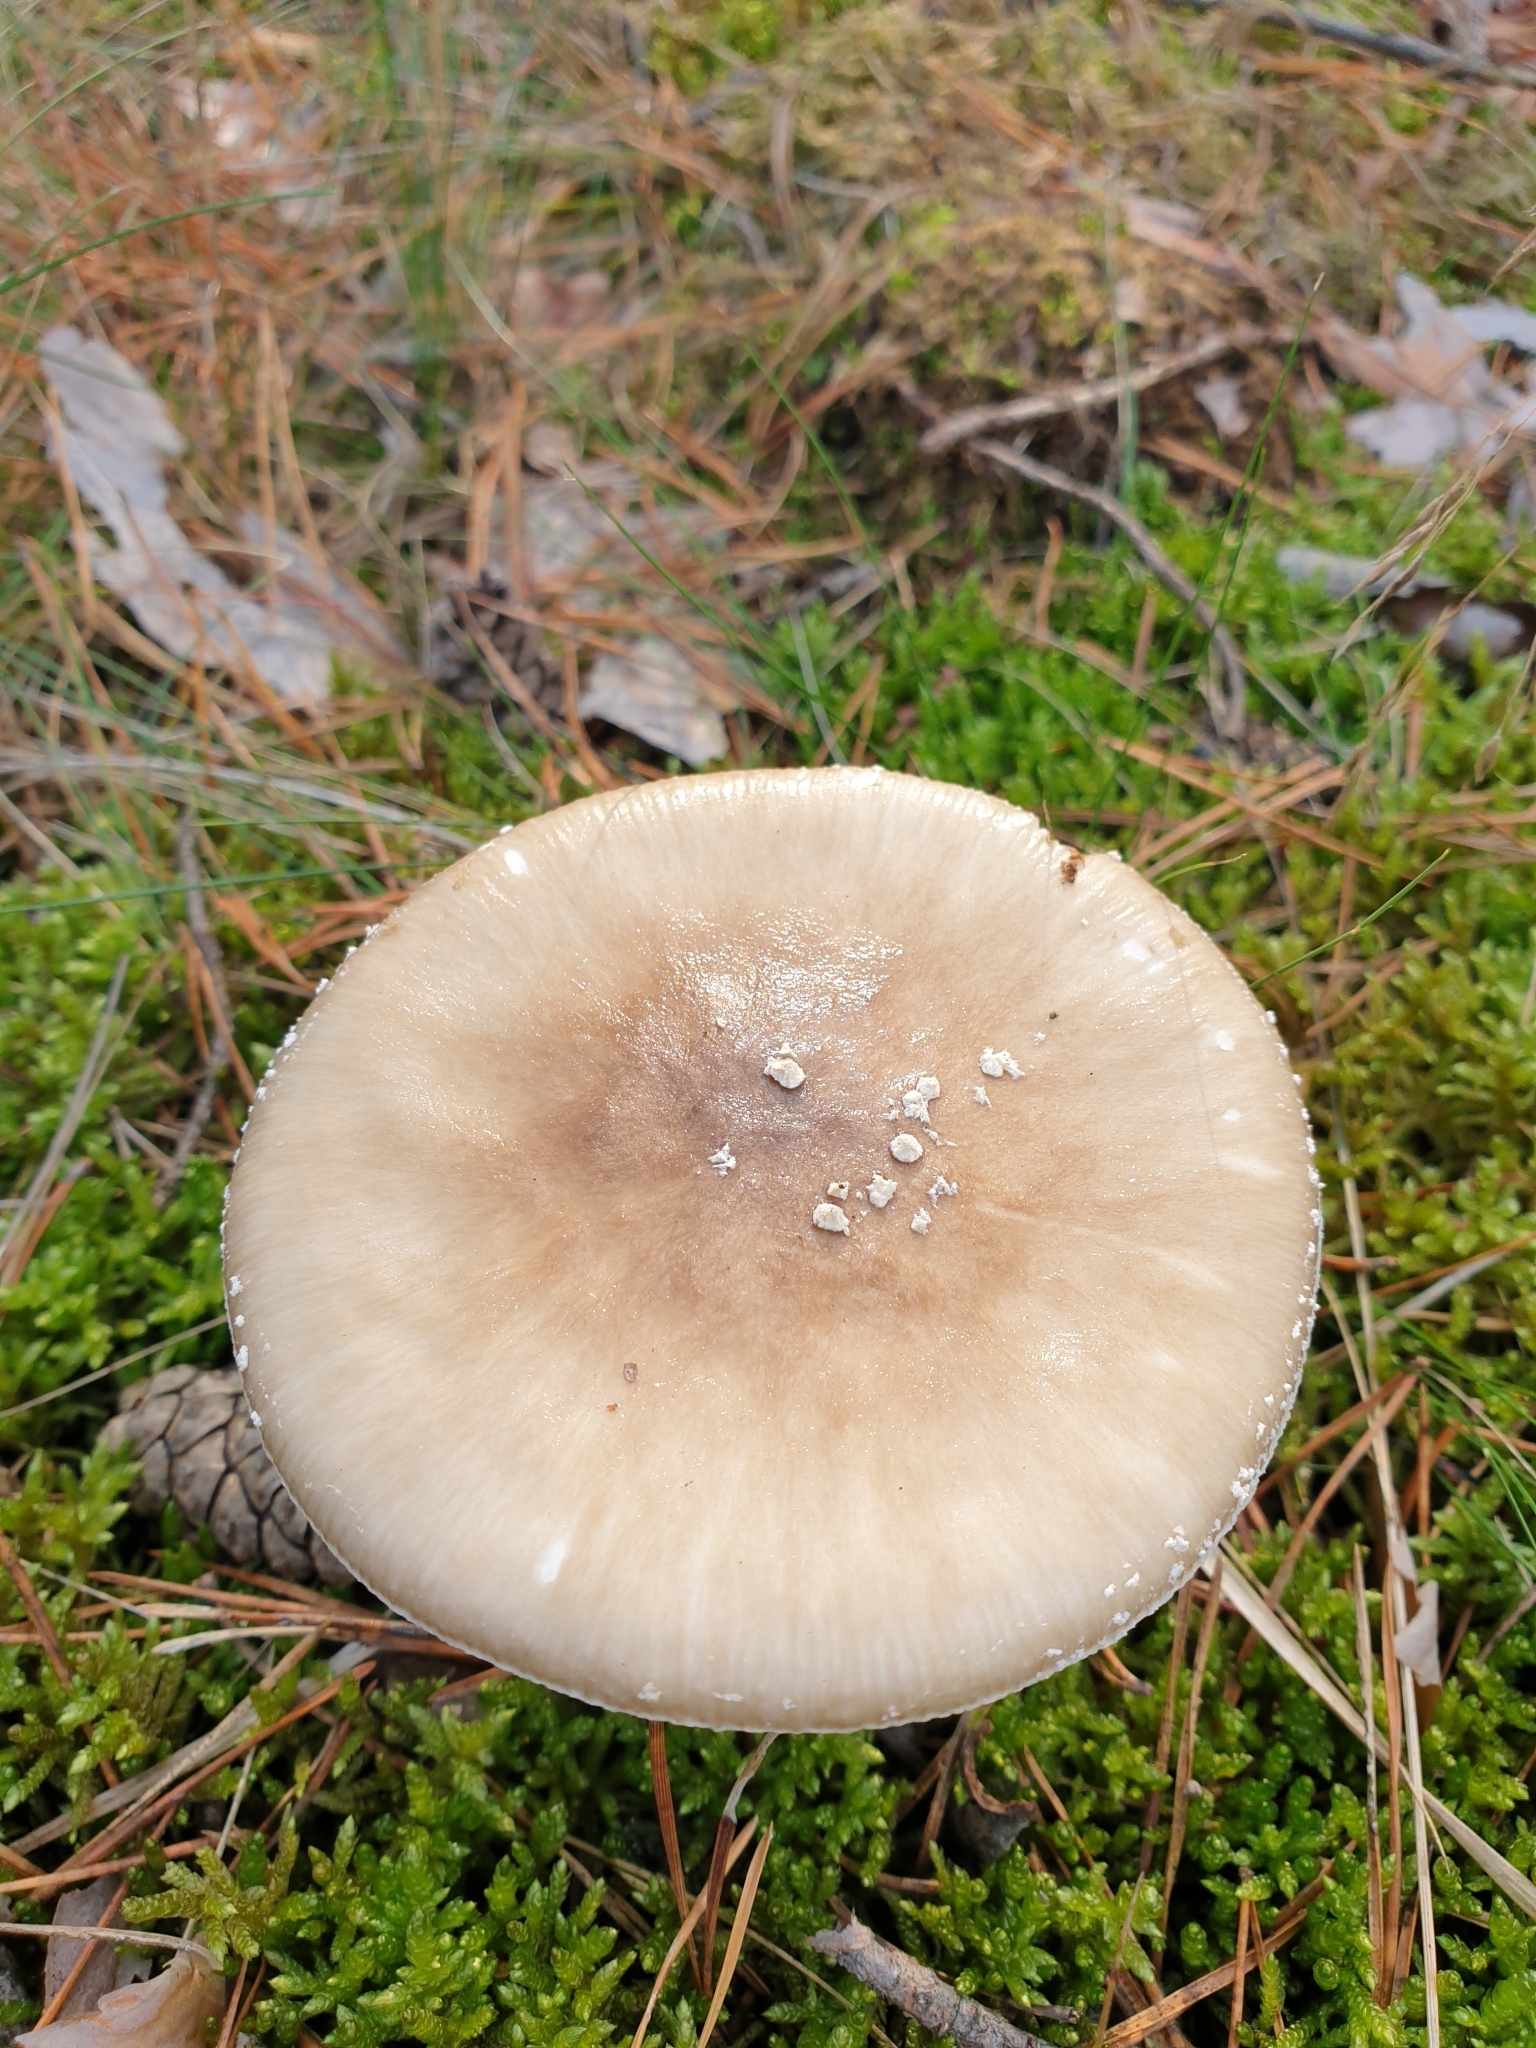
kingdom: Fungi
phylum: Basidiomycota
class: Agaricomycetes
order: Agaricales
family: Amanitaceae
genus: Amanita
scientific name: Amanita pantherina
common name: Panthercap
